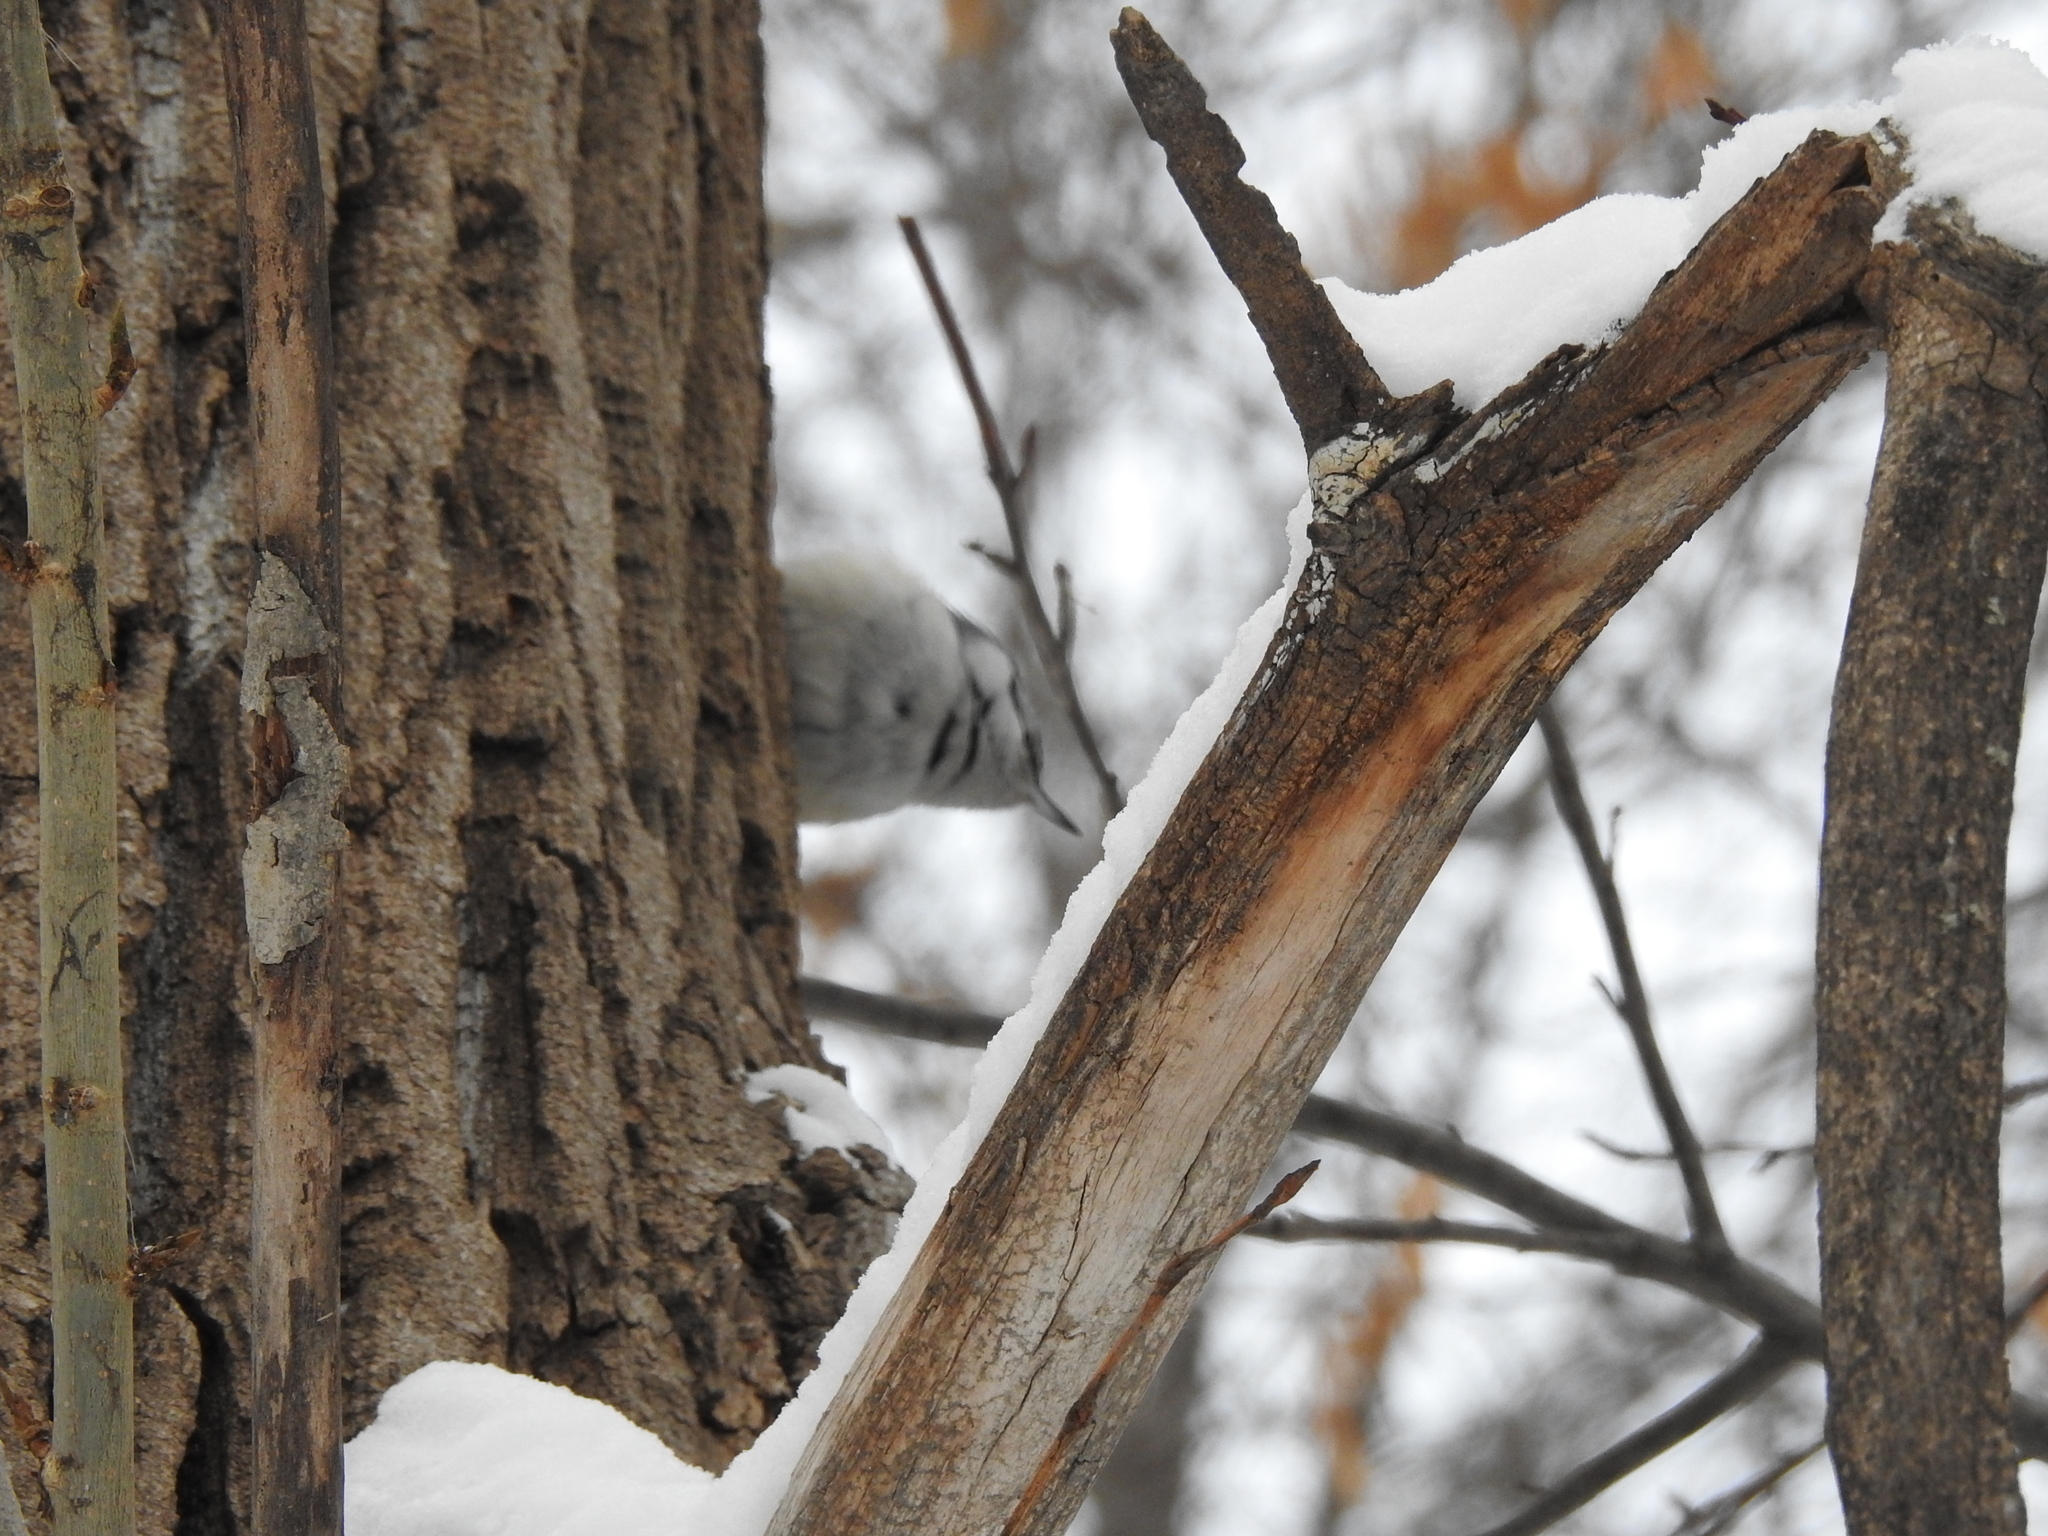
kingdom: Animalia
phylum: Chordata
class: Aves
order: Passeriformes
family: Sittidae
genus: Sitta
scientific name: Sitta europaea
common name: Eurasian nuthatch
